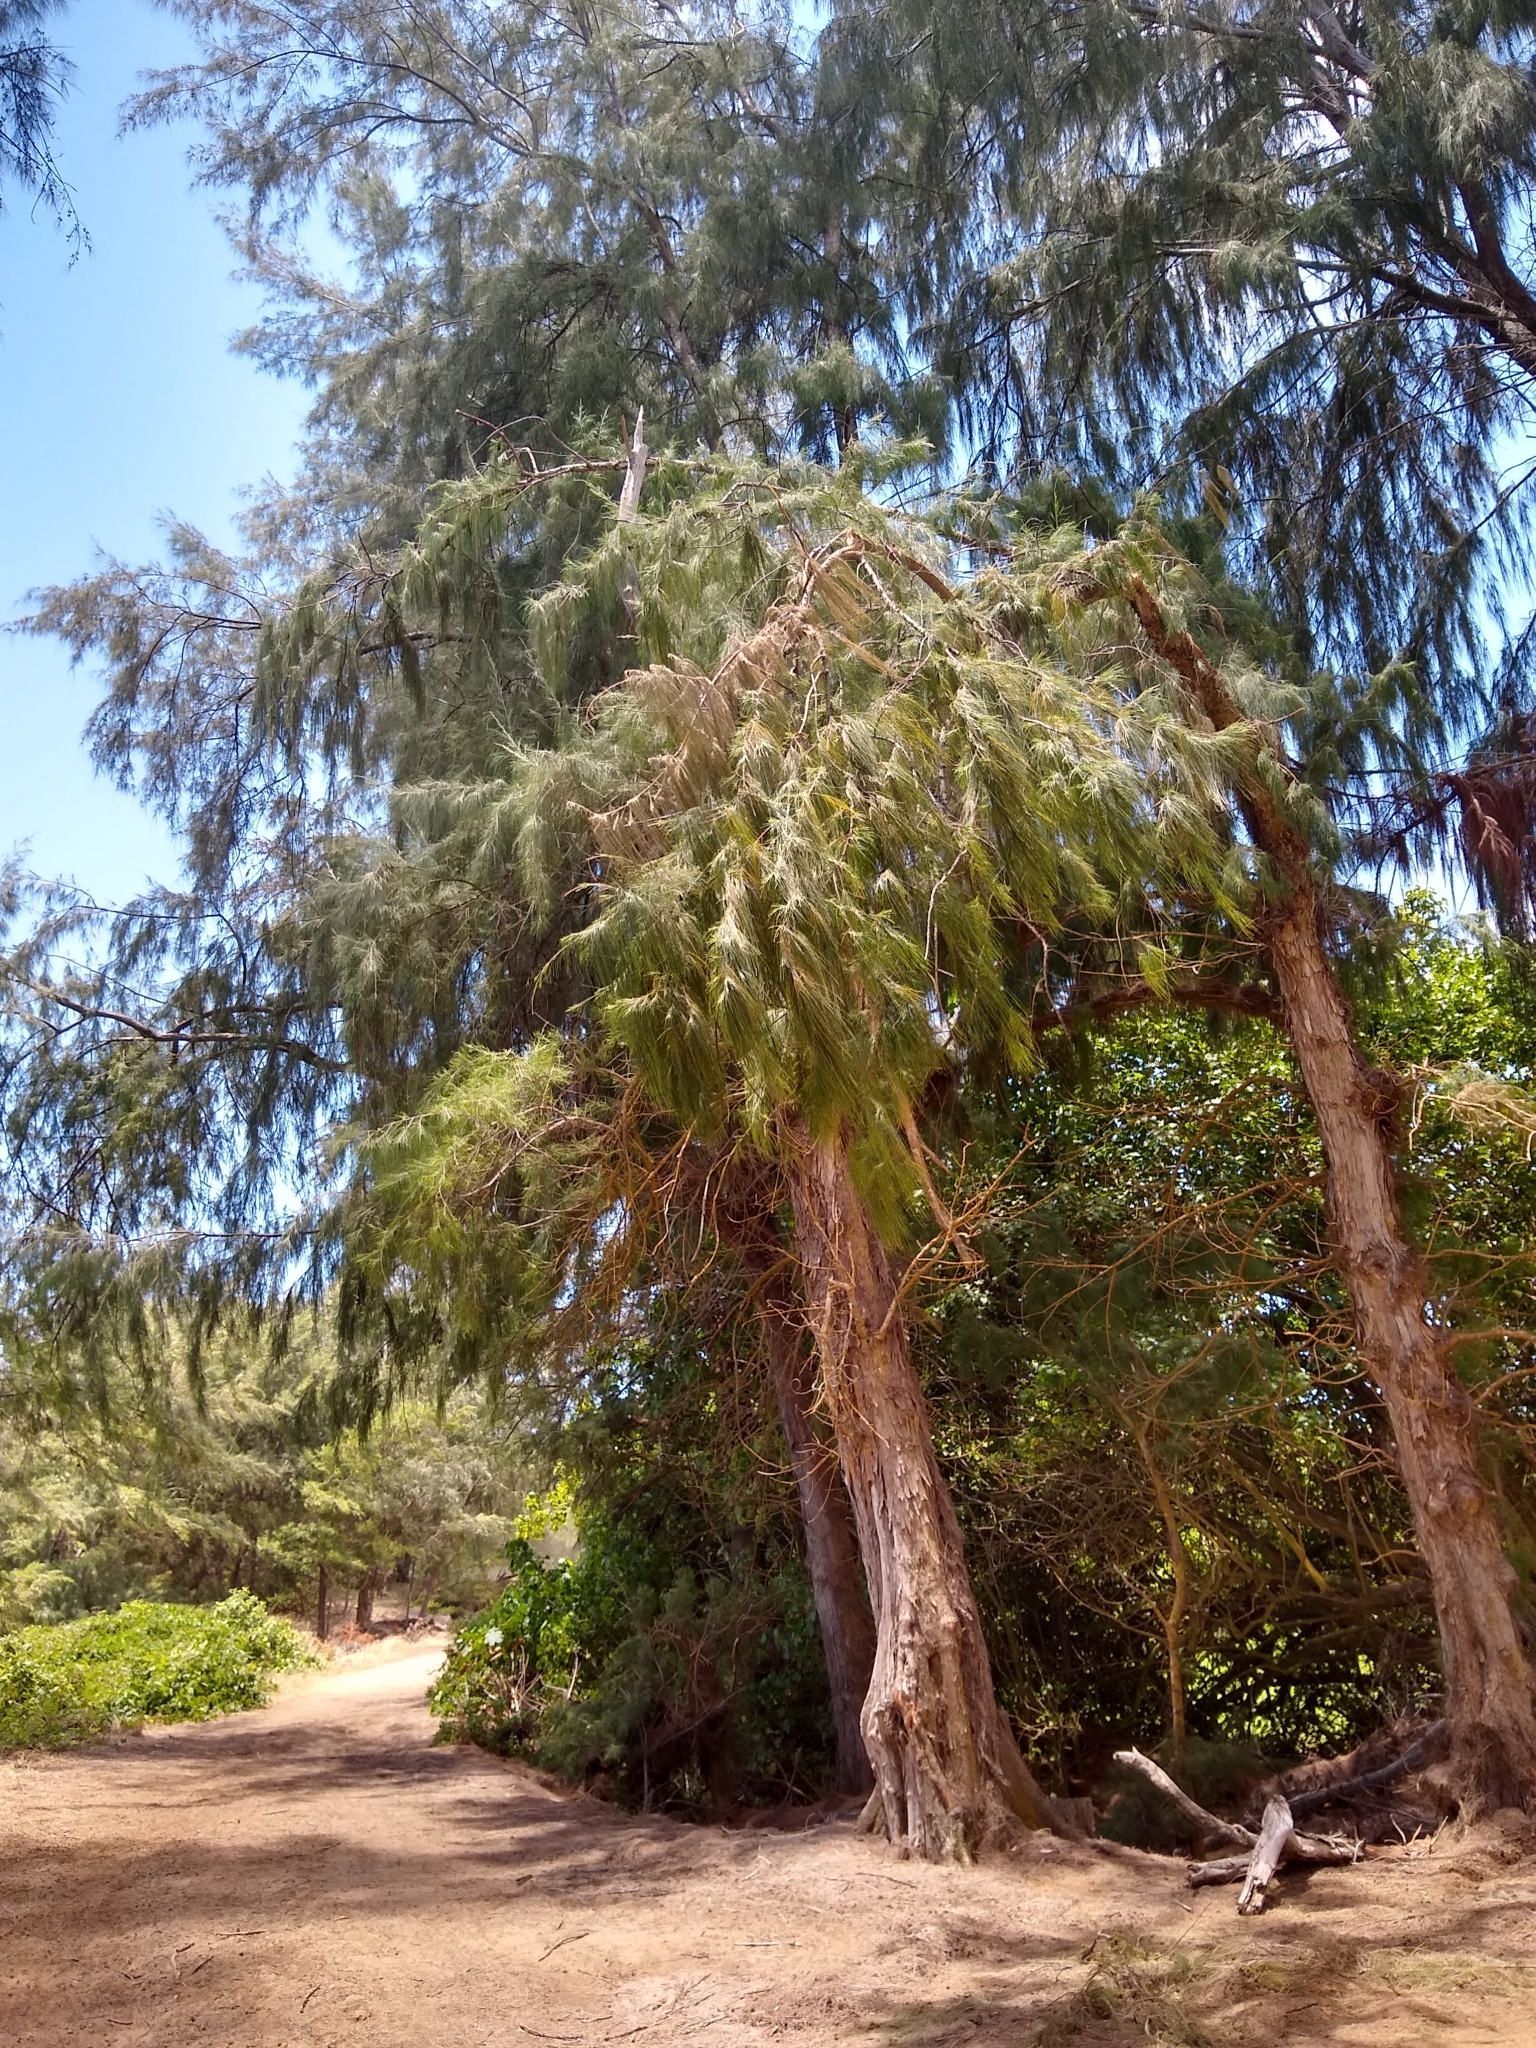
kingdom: Plantae
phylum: Tracheophyta
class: Magnoliopsida
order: Fagales
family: Casuarinaceae
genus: Casuarina
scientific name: Casuarina equisetifolia
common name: Beach sheoak
